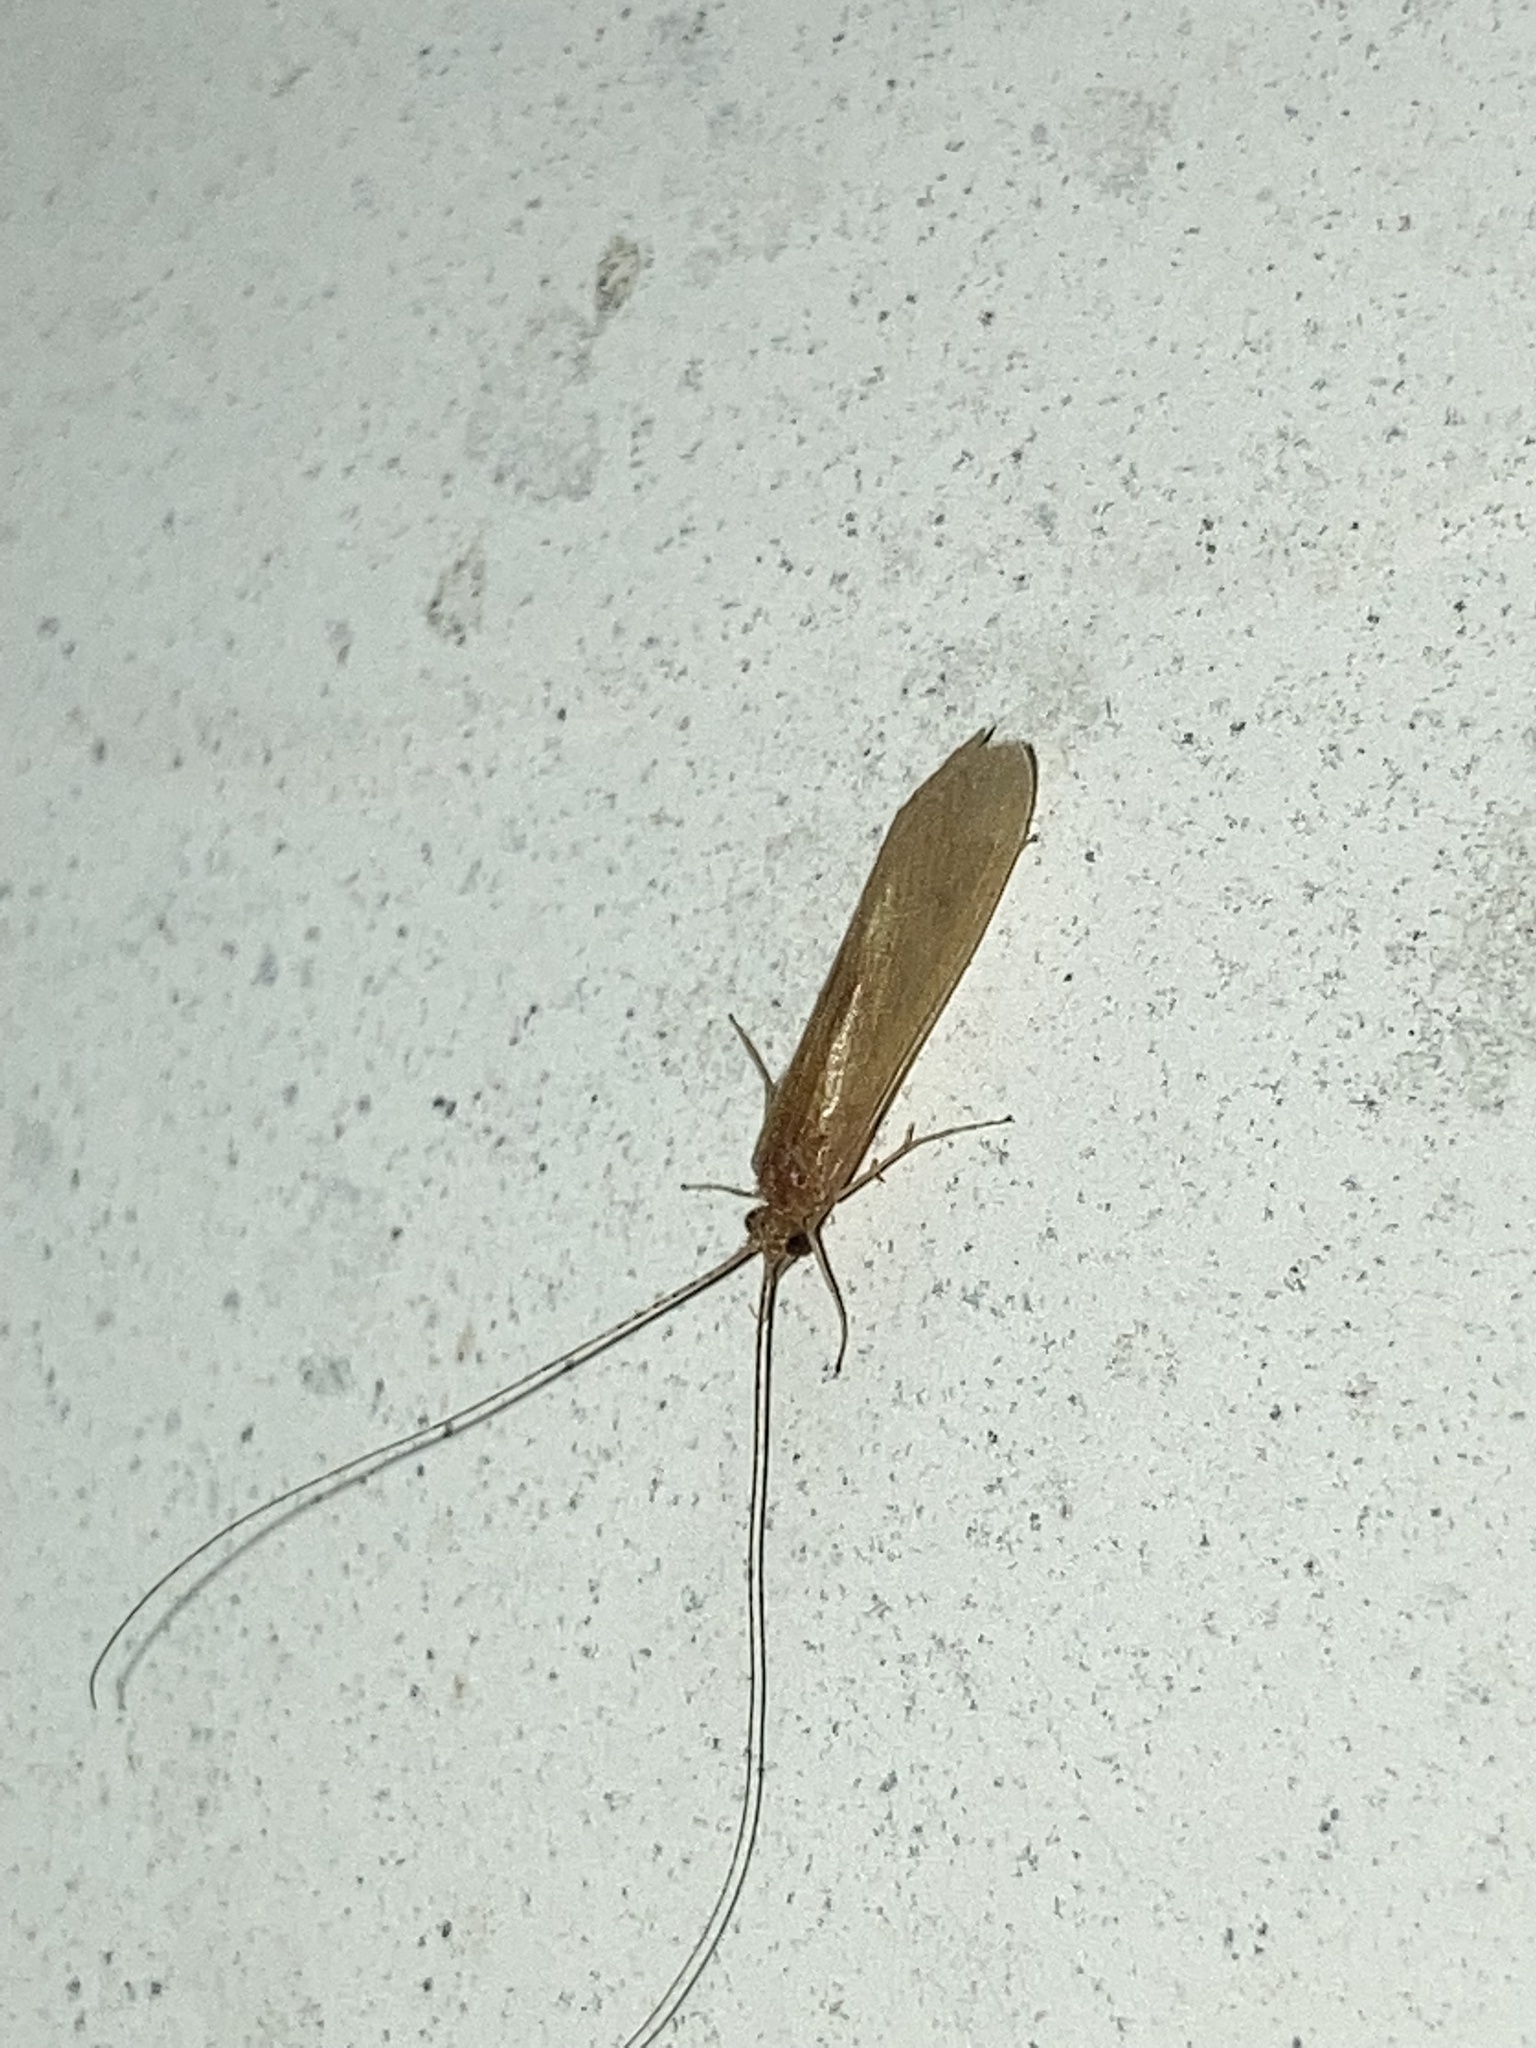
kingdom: Animalia
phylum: Arthropoda
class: Insecta
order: Trichoptera
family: Hydropsychidae
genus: Potamyia
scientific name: Potamyia flava
